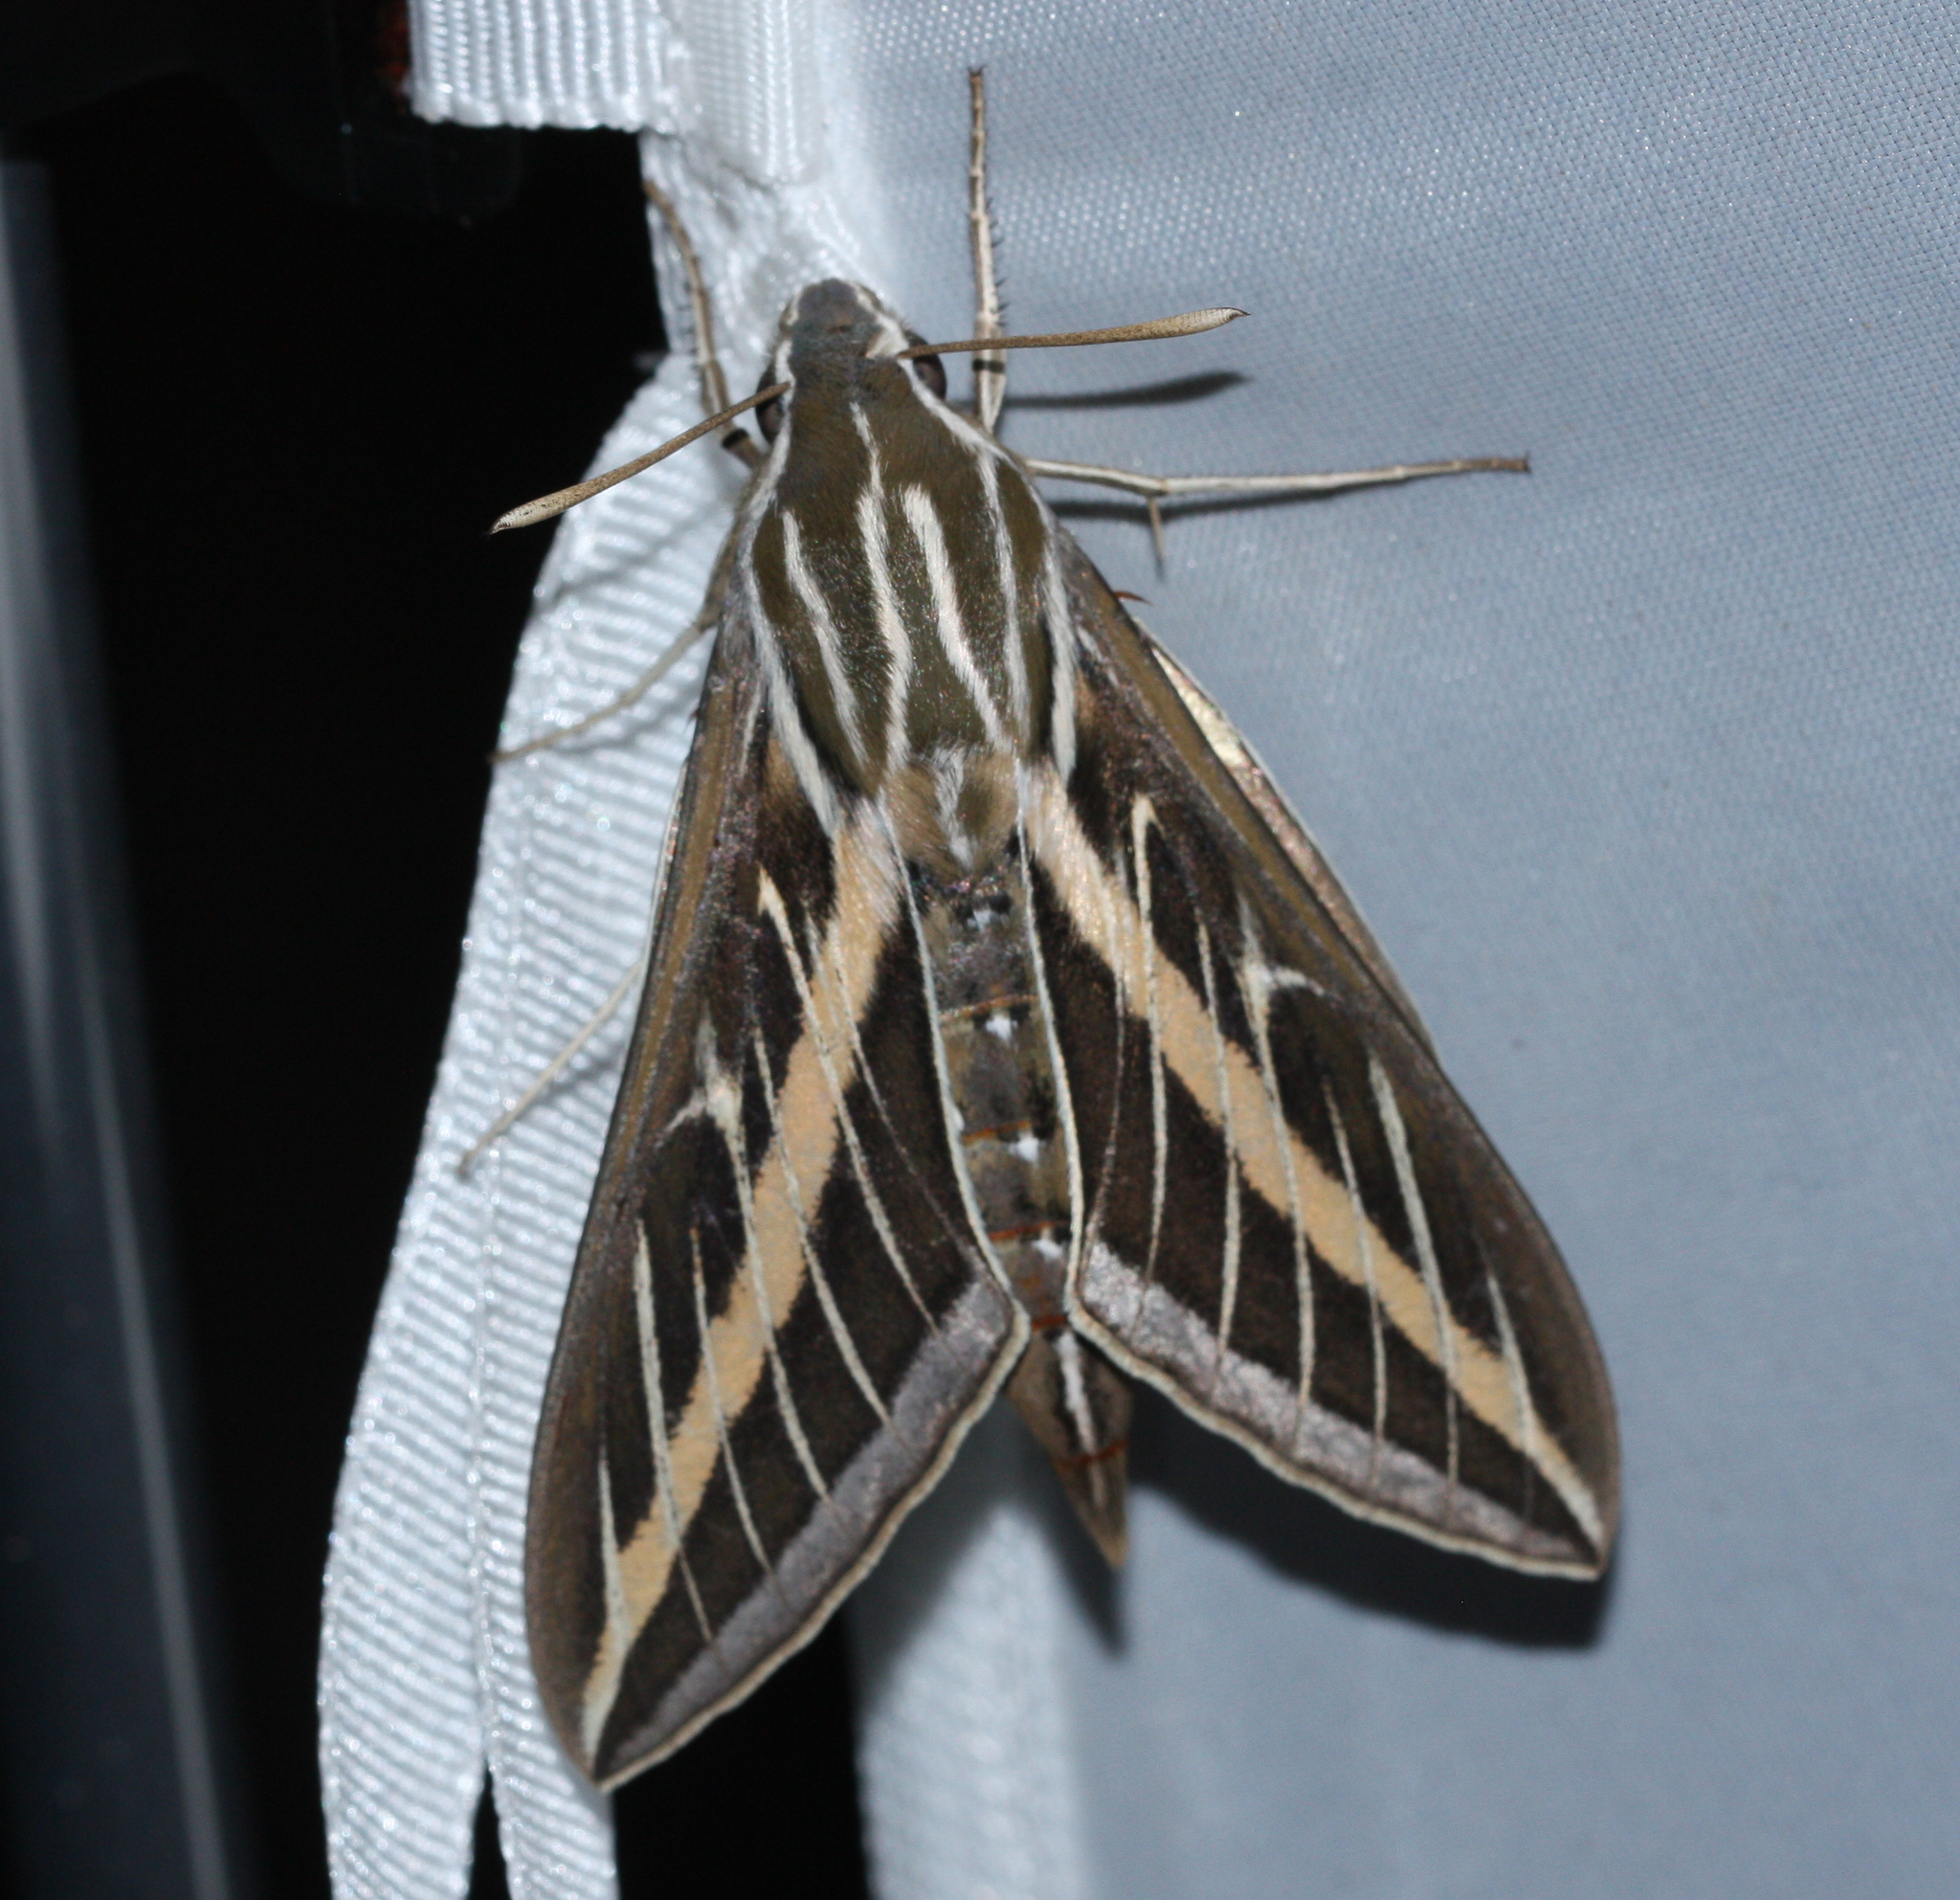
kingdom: Animalia
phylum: Arthropoda
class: Insecta
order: Lepidoptera
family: Sphingidae
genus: Hyles
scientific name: Hyles lineata
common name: White-lined sphinx
